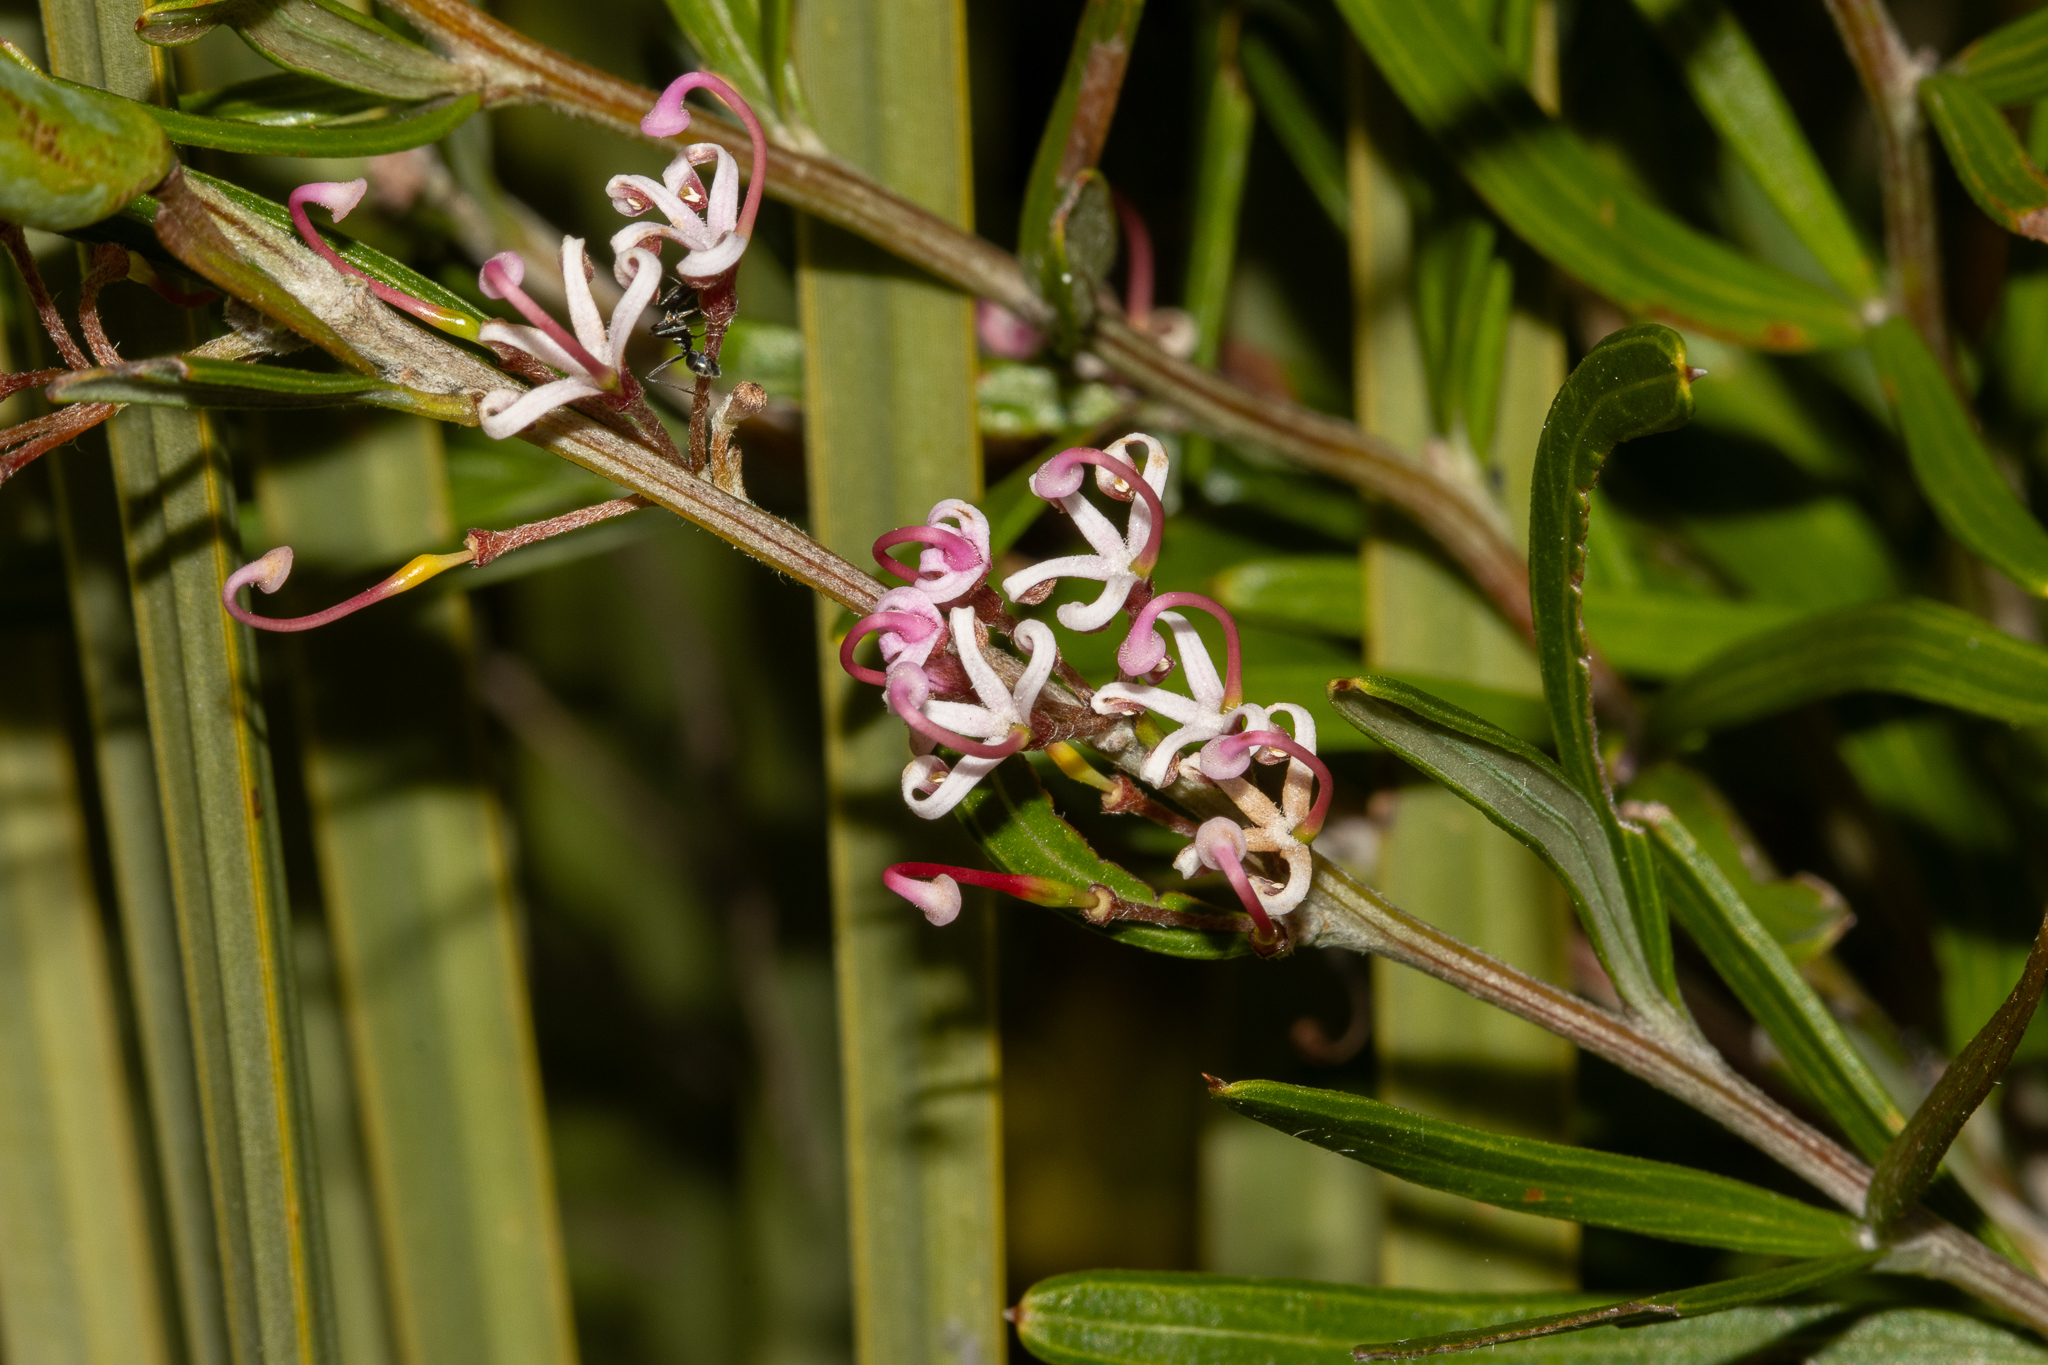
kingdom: Plantae
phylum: Tracheophyta
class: Magnoliopsida
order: Proteales
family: Proteaceae
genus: Grevillea
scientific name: Grevillea quinquenervis
